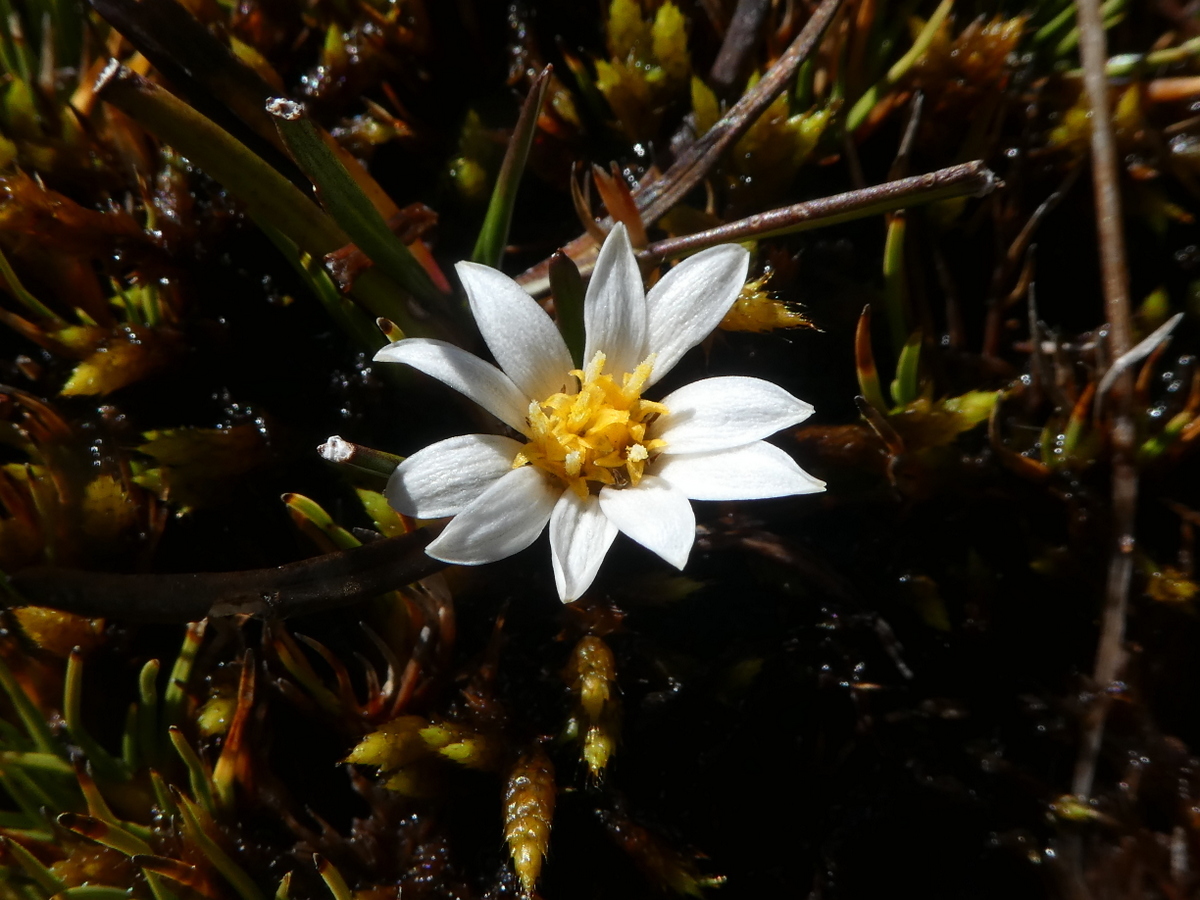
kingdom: Plantae
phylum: Tracheophyta
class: Magnoliopsida
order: Asterales
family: Asteraceae
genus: Celmisia
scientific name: Celmisia alpina
